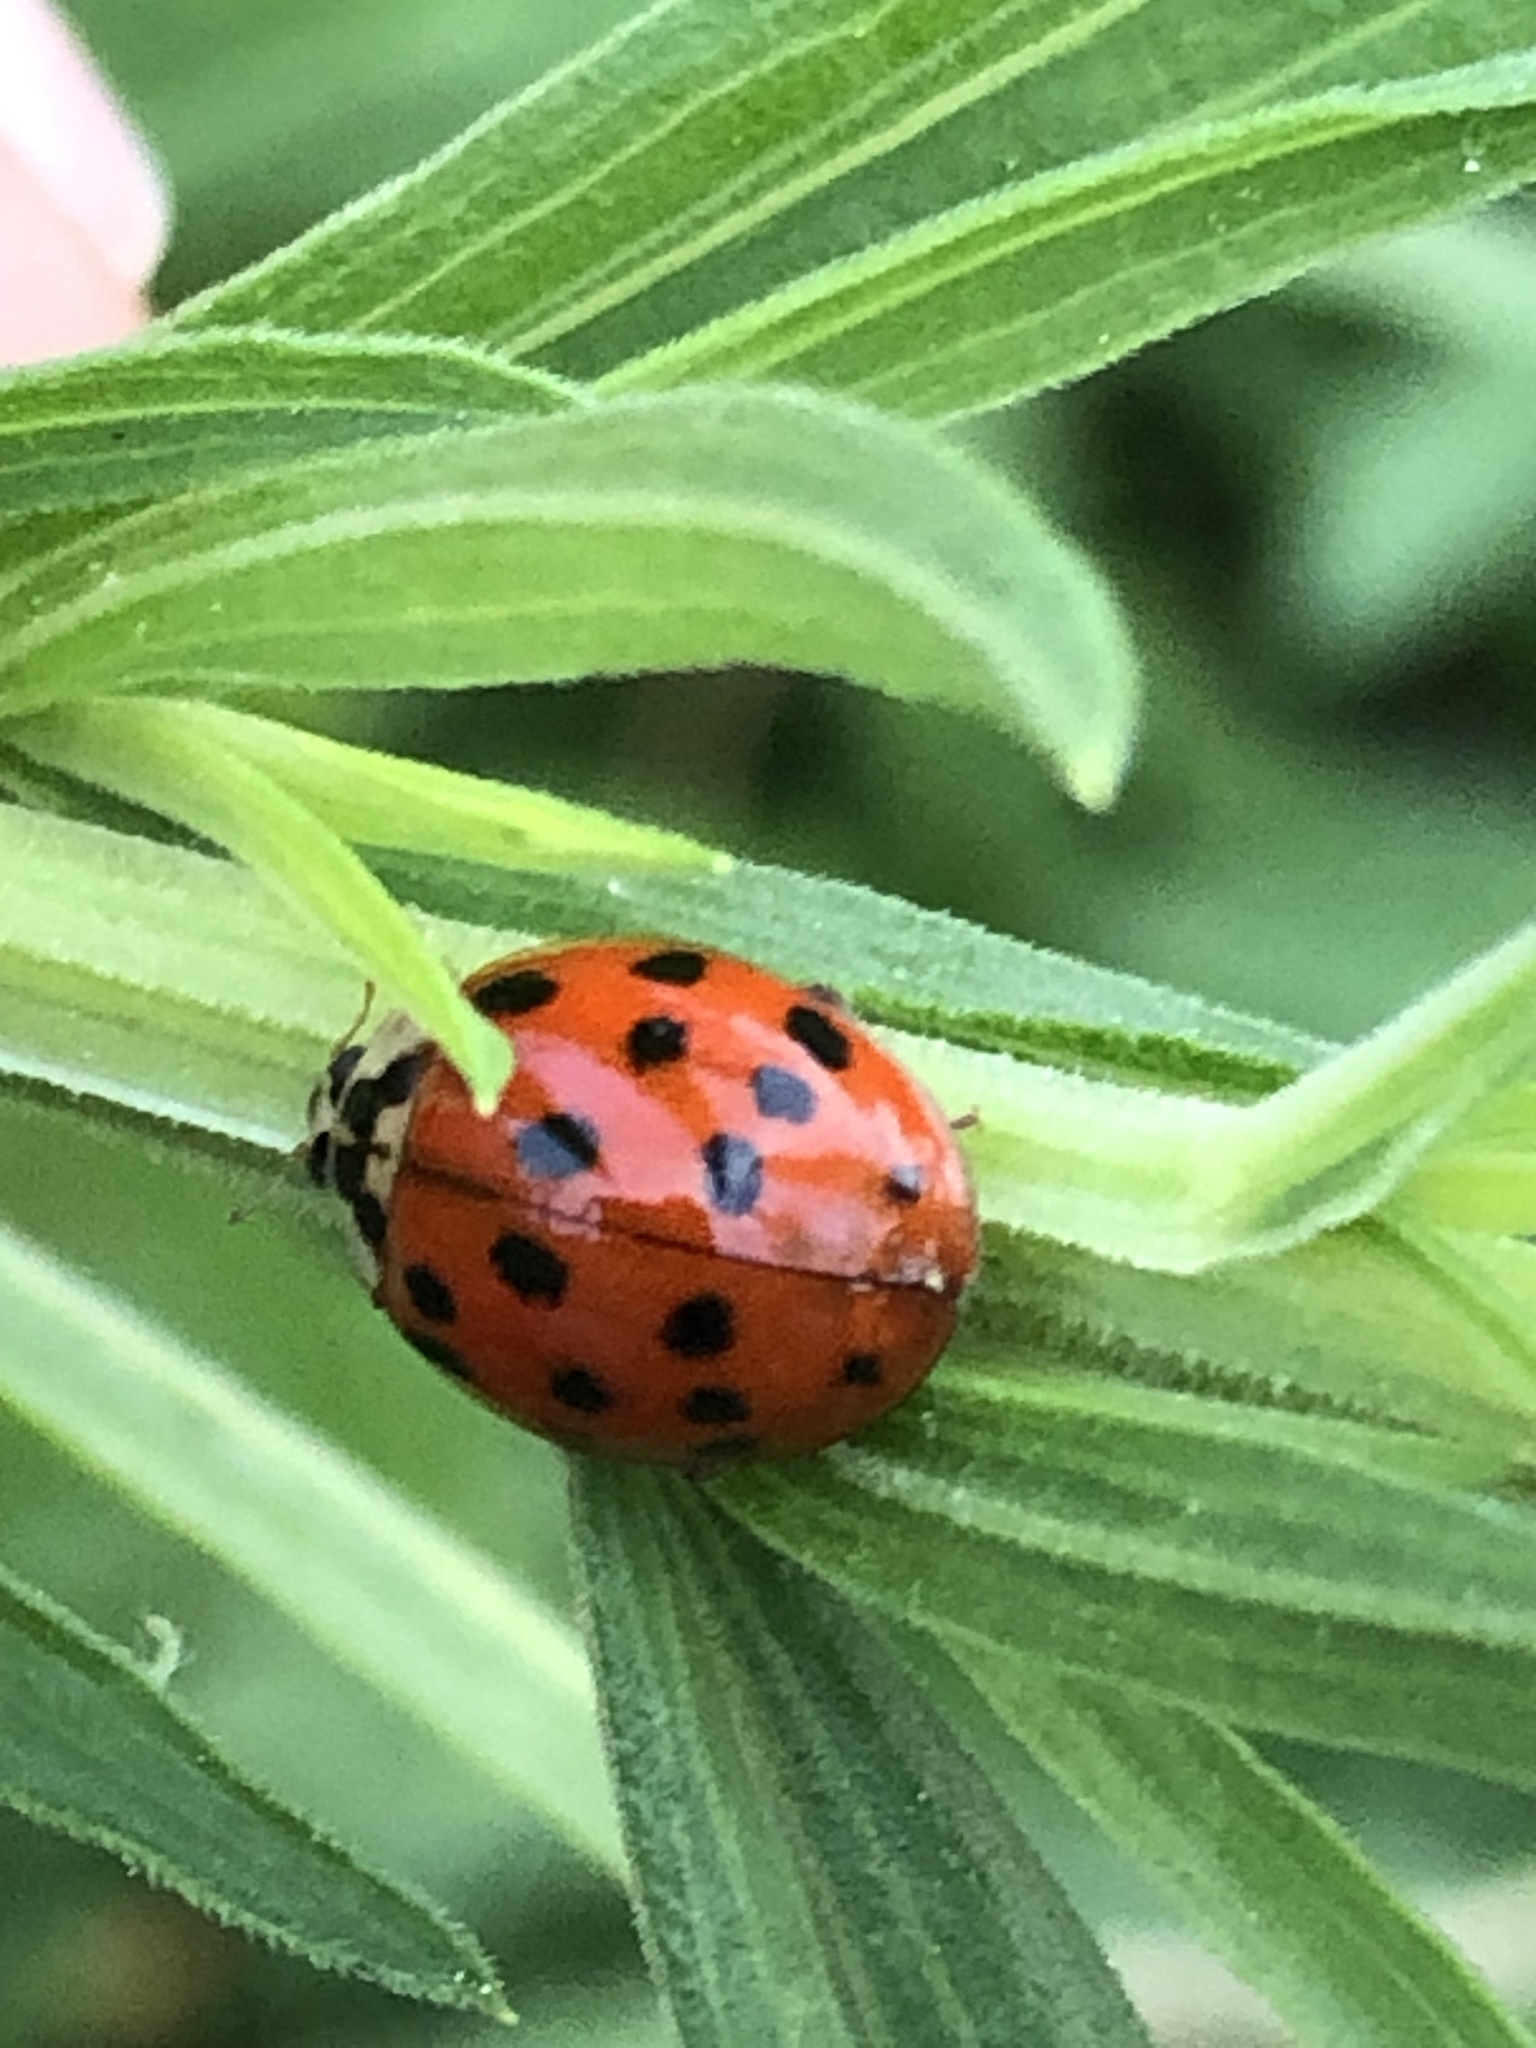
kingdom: Animalia
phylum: Arthropoda
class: Insecta
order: Coleoptera
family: Coccinellidae
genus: Harmonia
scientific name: Harmonia axyridis
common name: Harlequin ladybird
